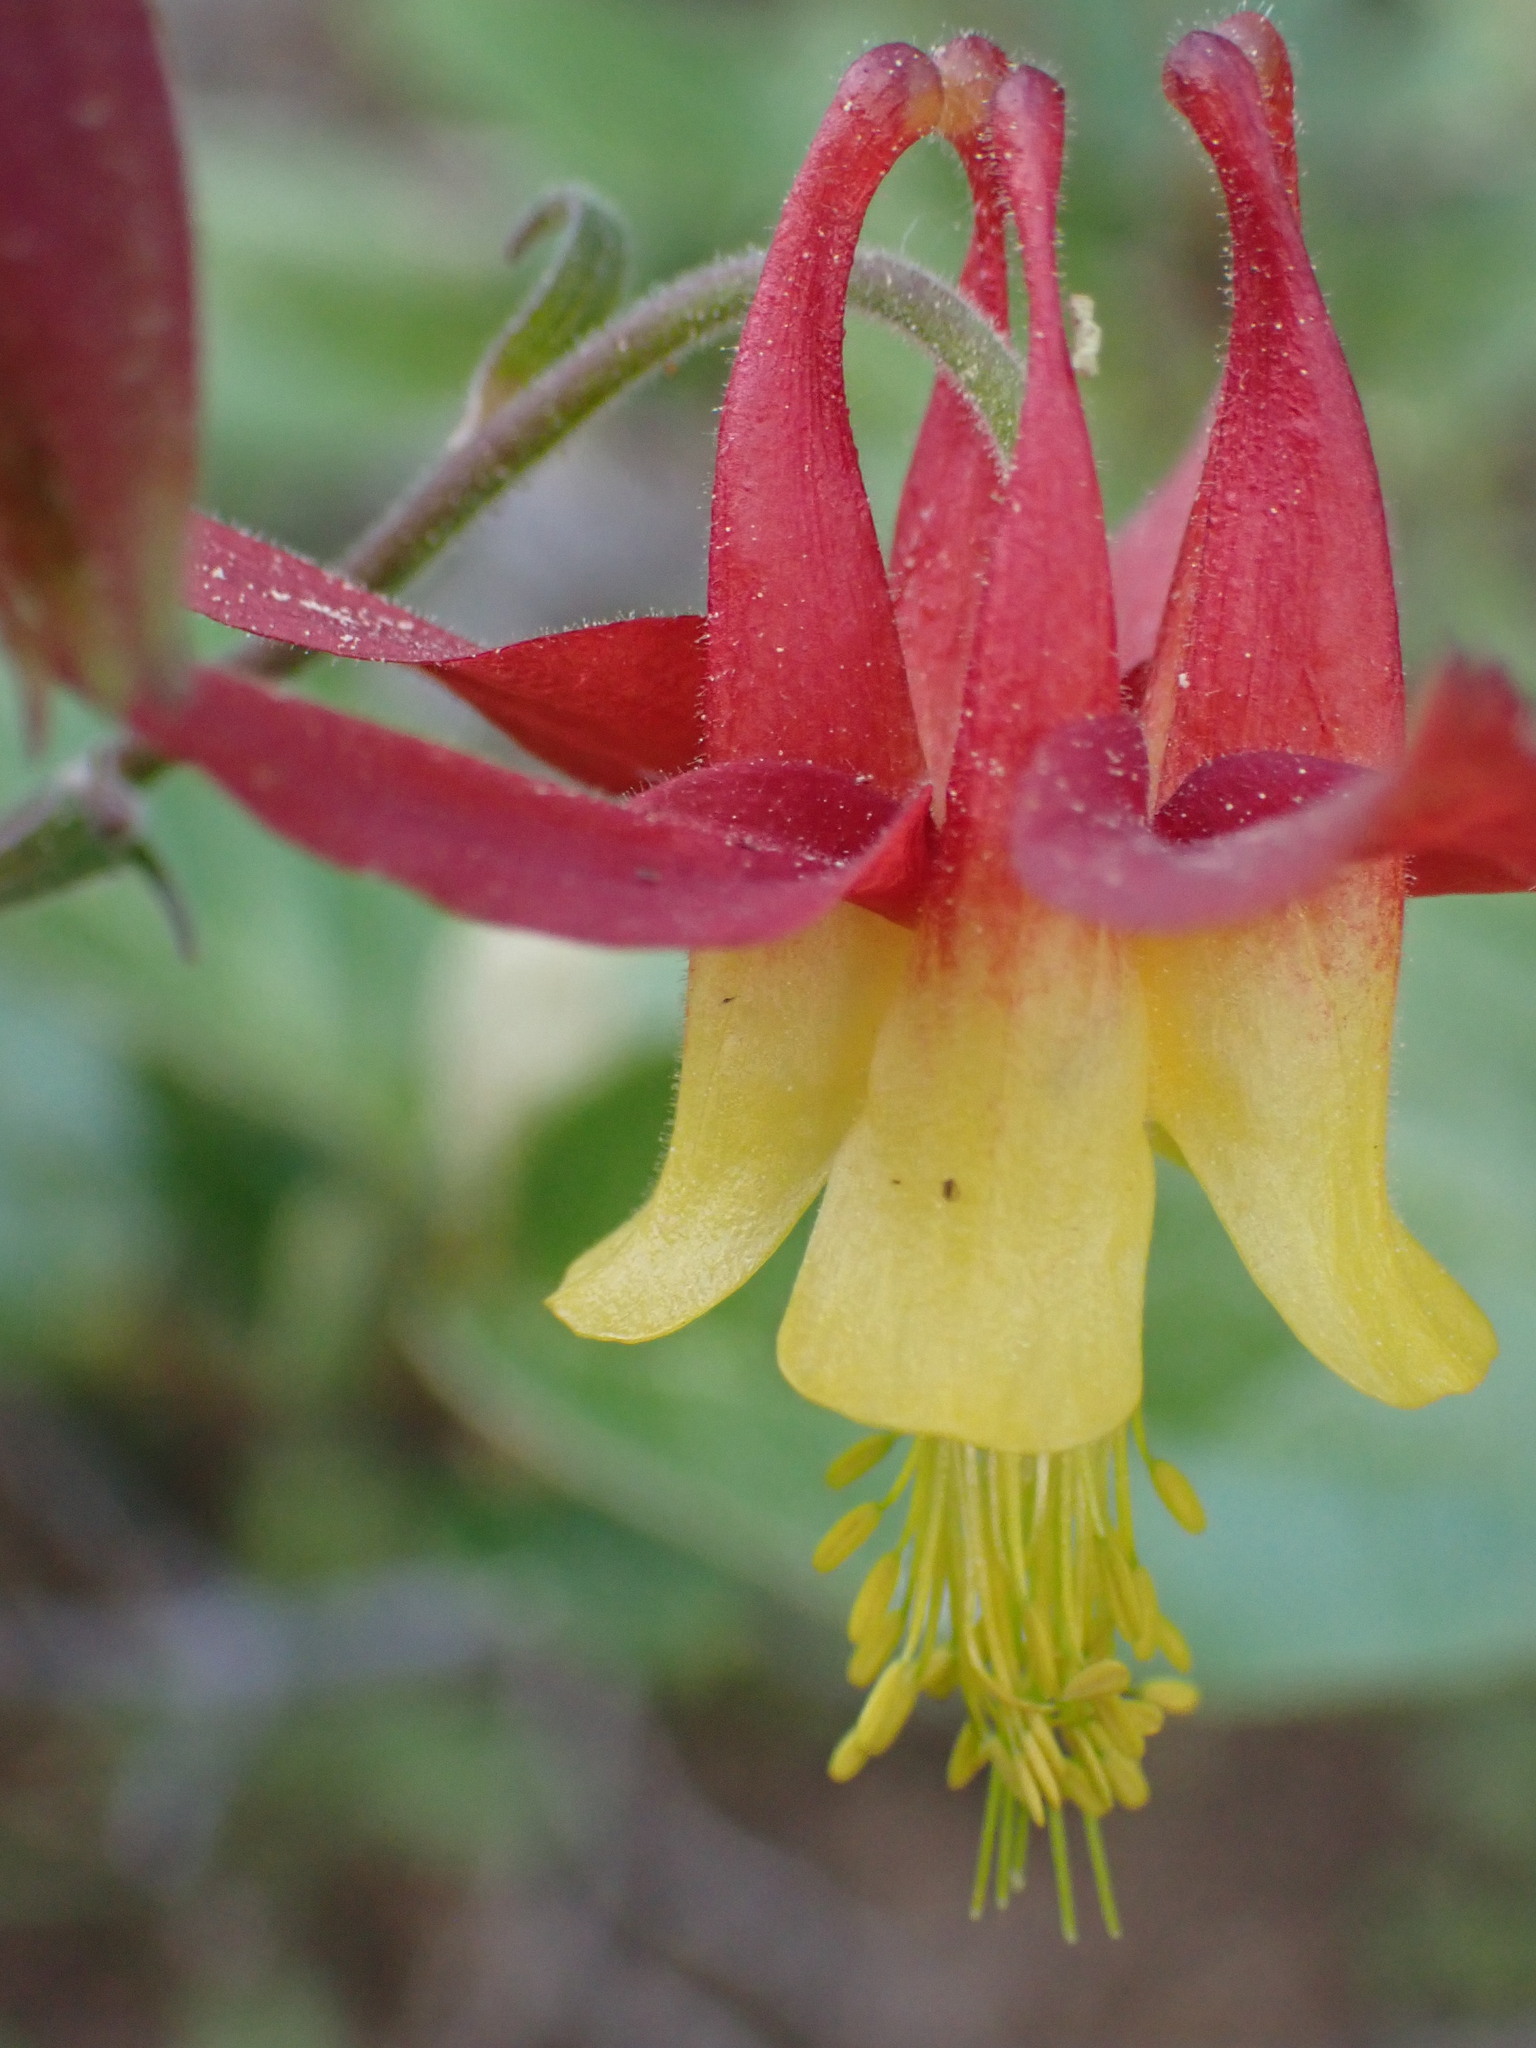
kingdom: Plantae
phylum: Tracheophyta
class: Magnoliopsida
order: Ranunculales
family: Ranunculaceae
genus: Aquilegia
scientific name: Aquilegia formosa
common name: Sitka columbine
